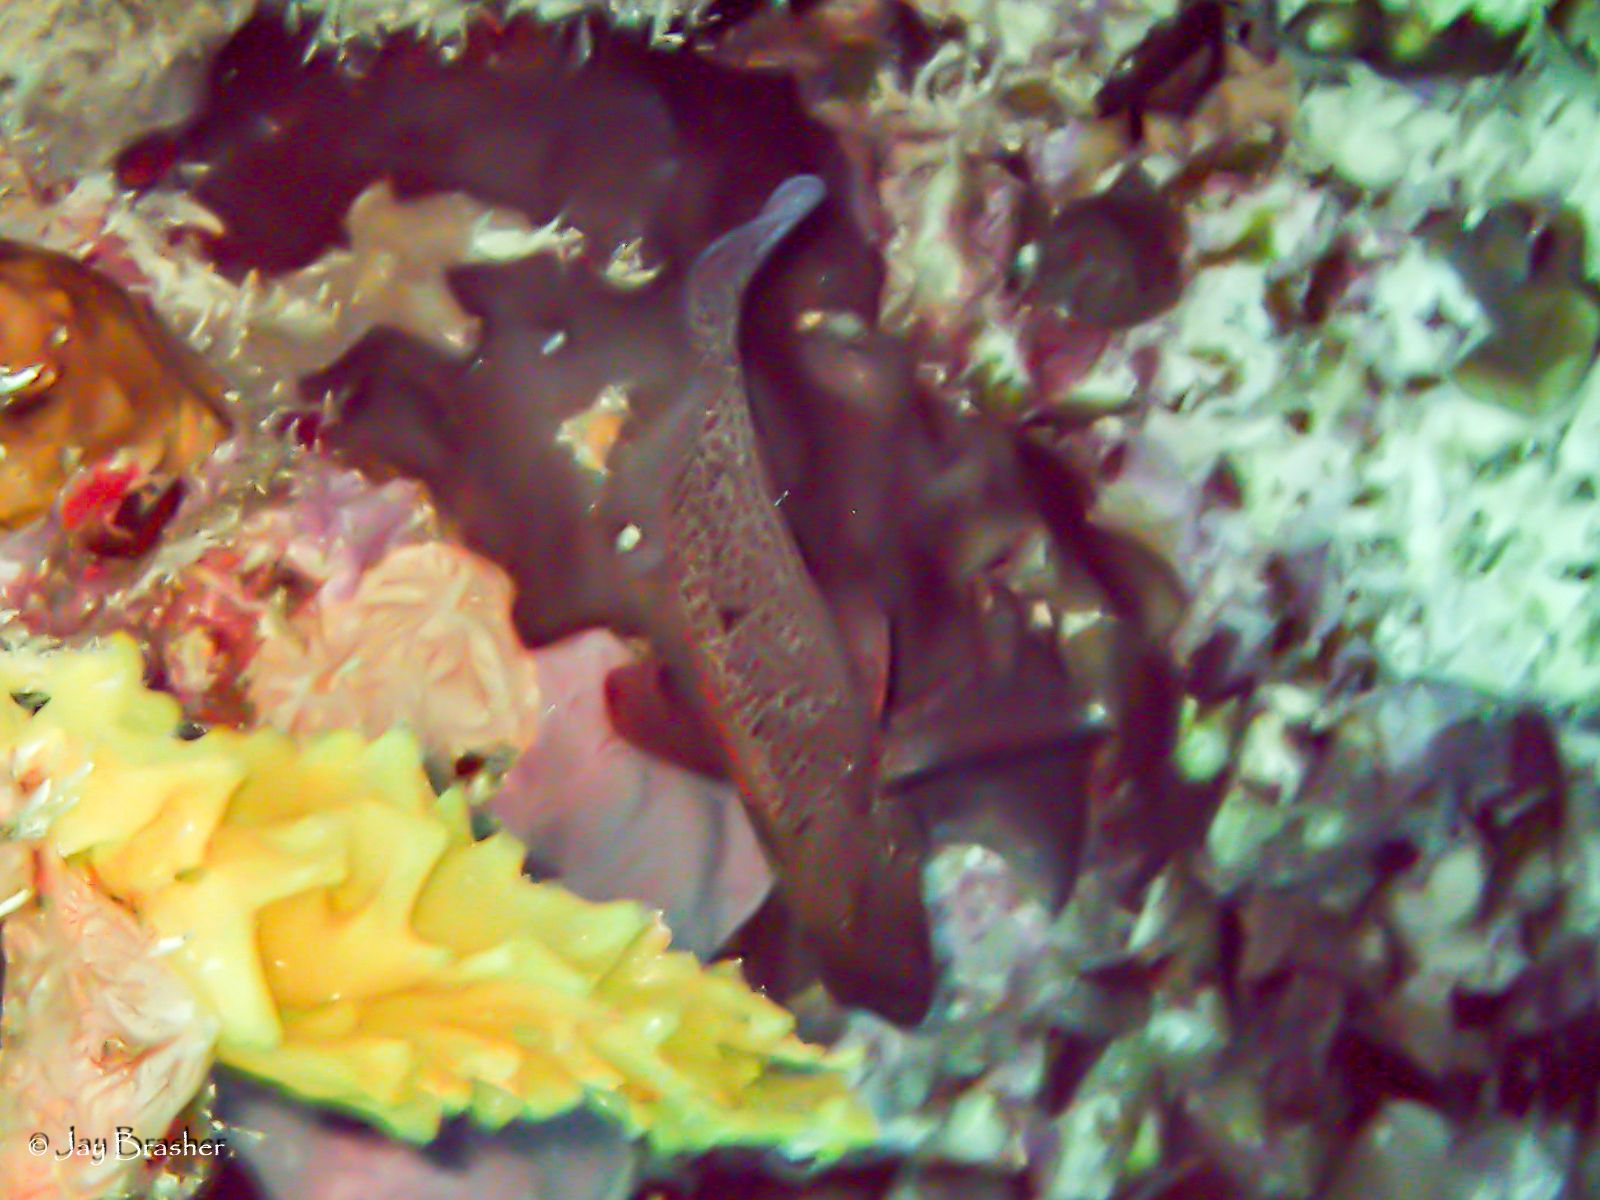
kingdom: Animalia
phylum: Chordata
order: Perciformes
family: Serranidae
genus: Cephalopholis
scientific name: Cephalopholis cruentata
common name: Graysby
